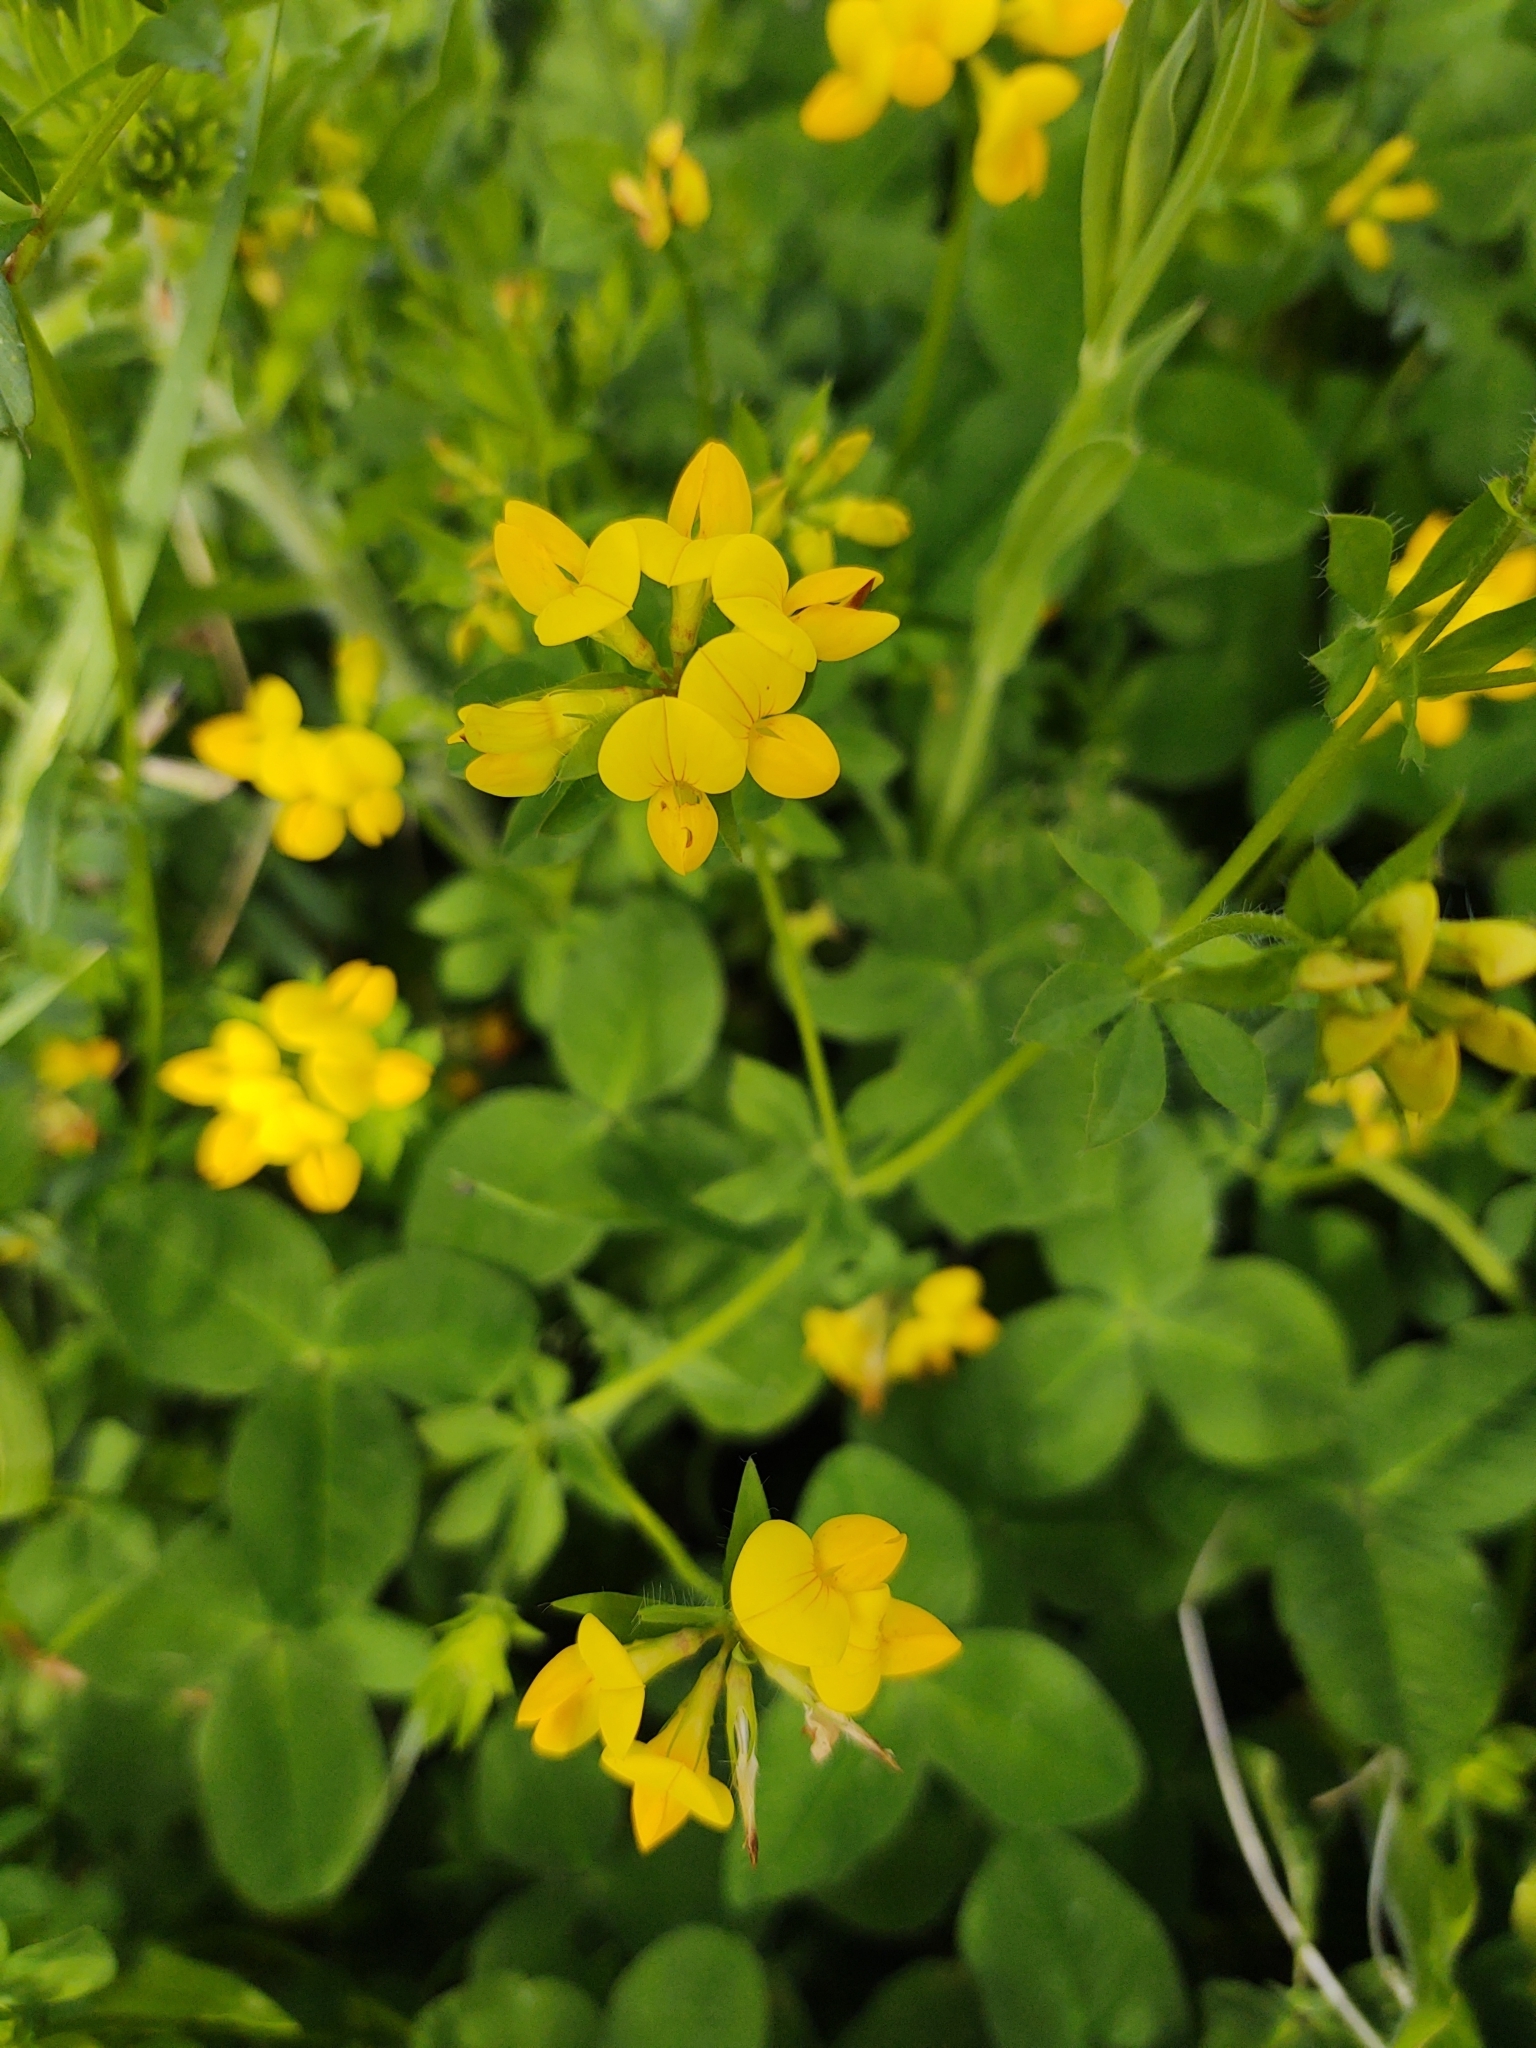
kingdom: Plantae
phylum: Tracheophyta
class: Magnoliopsida
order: Fabales
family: Fabaceae
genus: Lotus
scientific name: Lotus corniculatus
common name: Common bird's-foot-trefoil
